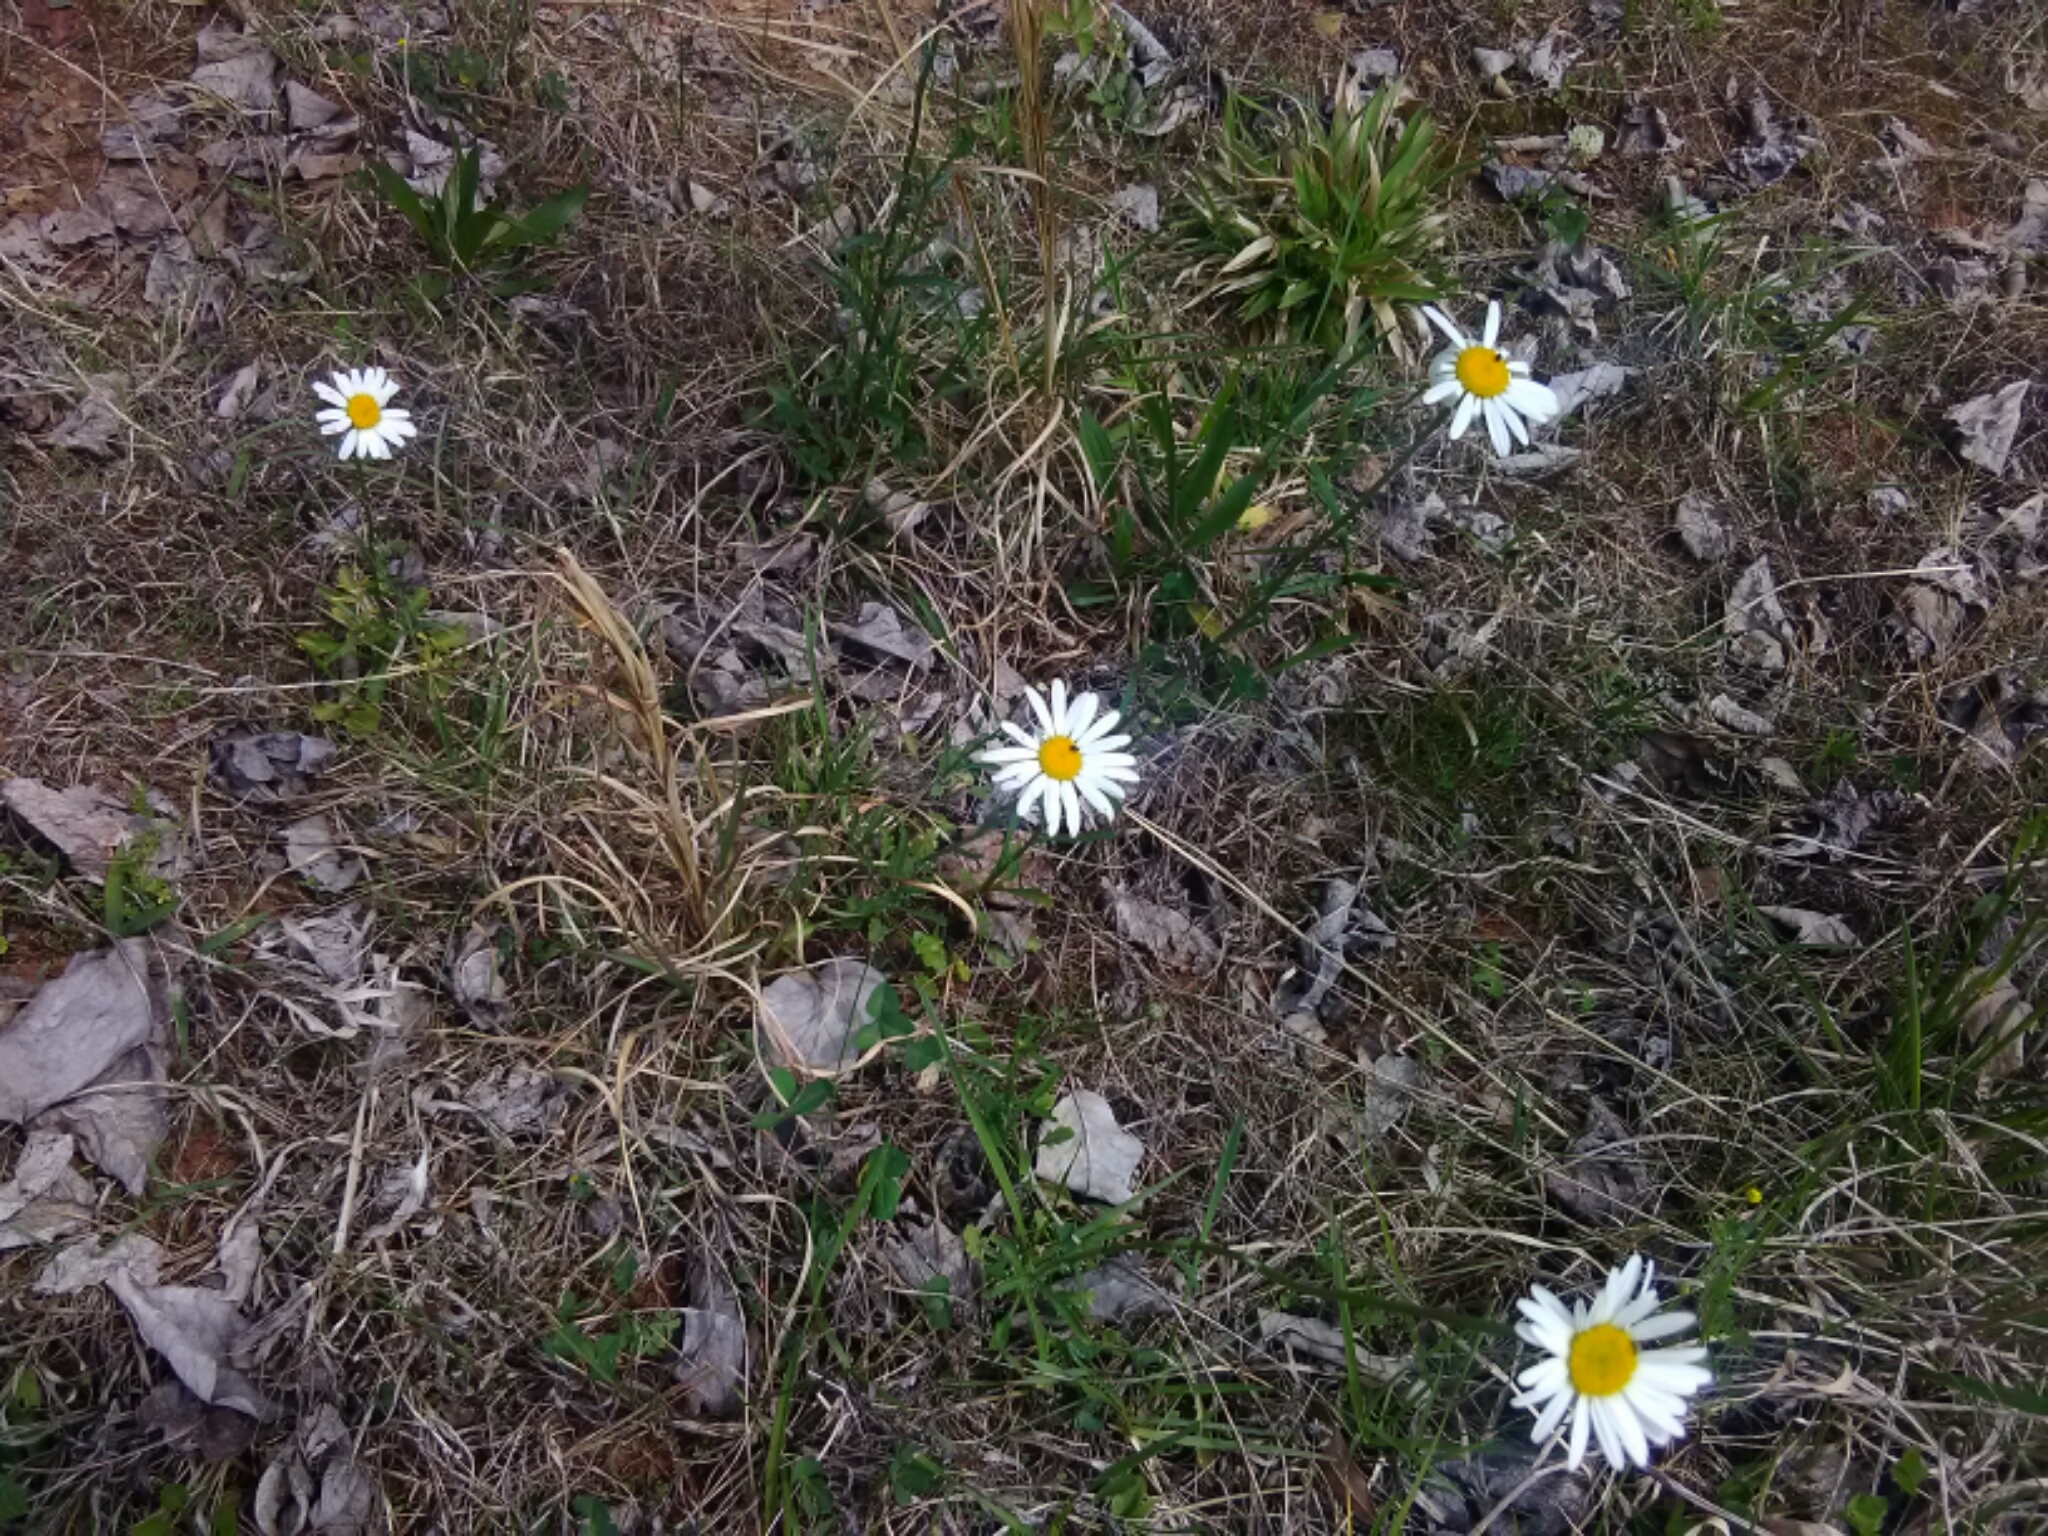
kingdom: Plantae
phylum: Tracheophyta
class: Magnoliopsida
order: Asterales
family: Asteraceae
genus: Leucanthemum
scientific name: Leucanthemum vulgare
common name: Oxeye daisy
